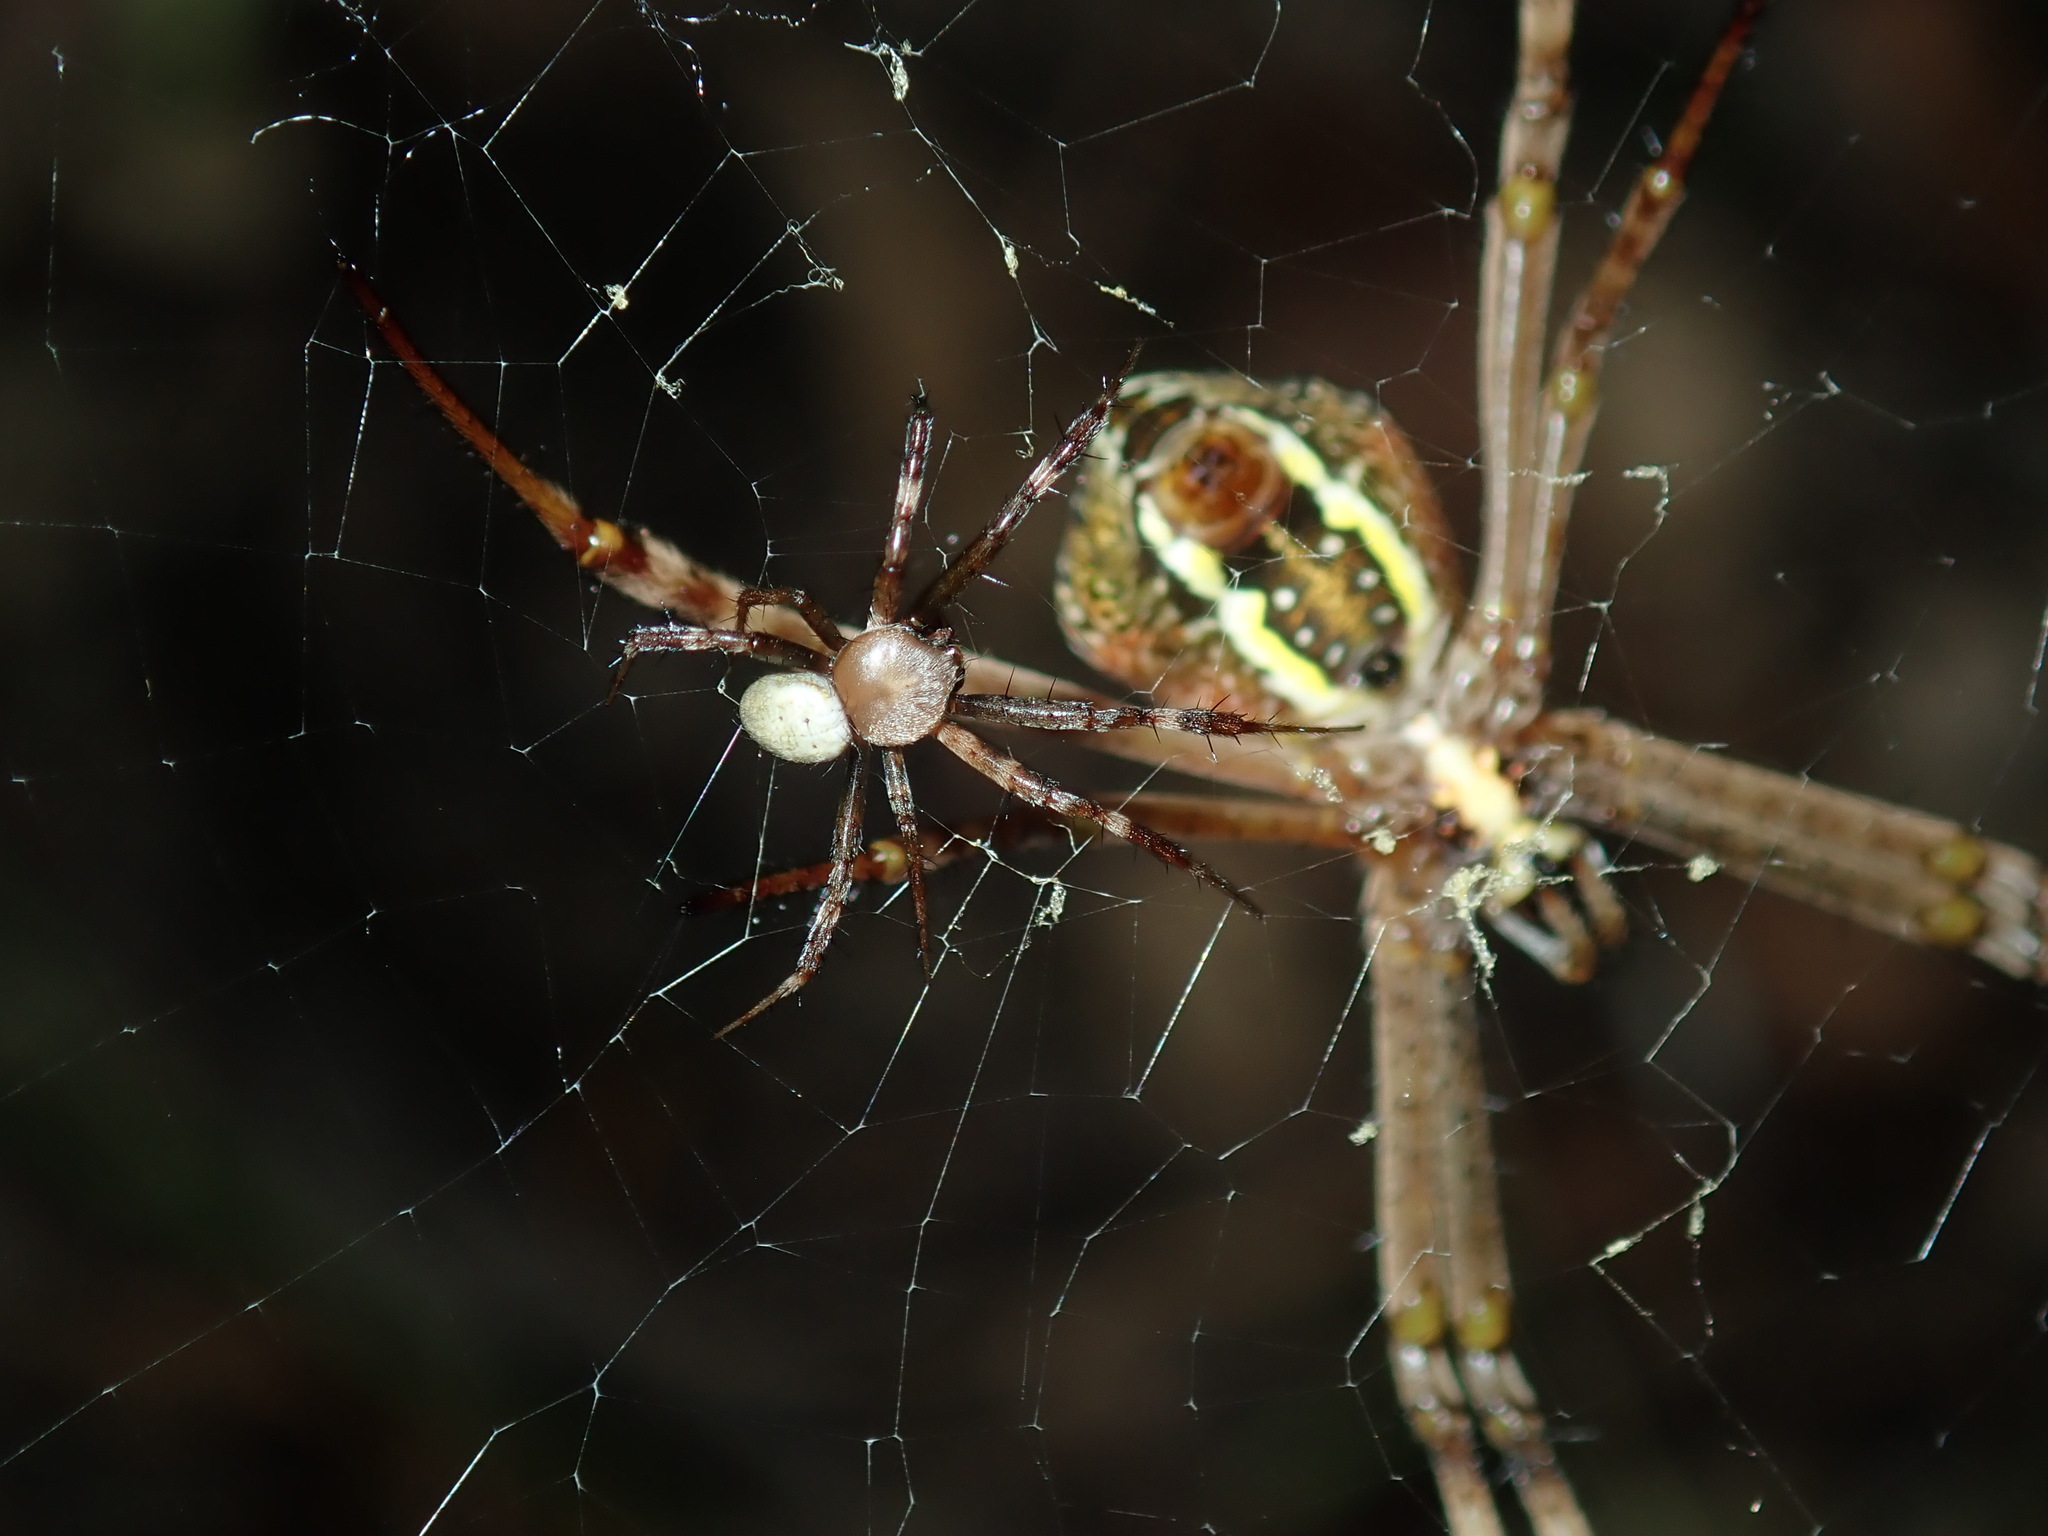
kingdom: Animalia
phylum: Arthropoda
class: Arachnida
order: Araneae
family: Araneidae
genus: Argiope
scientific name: Argiope keyserlingi
